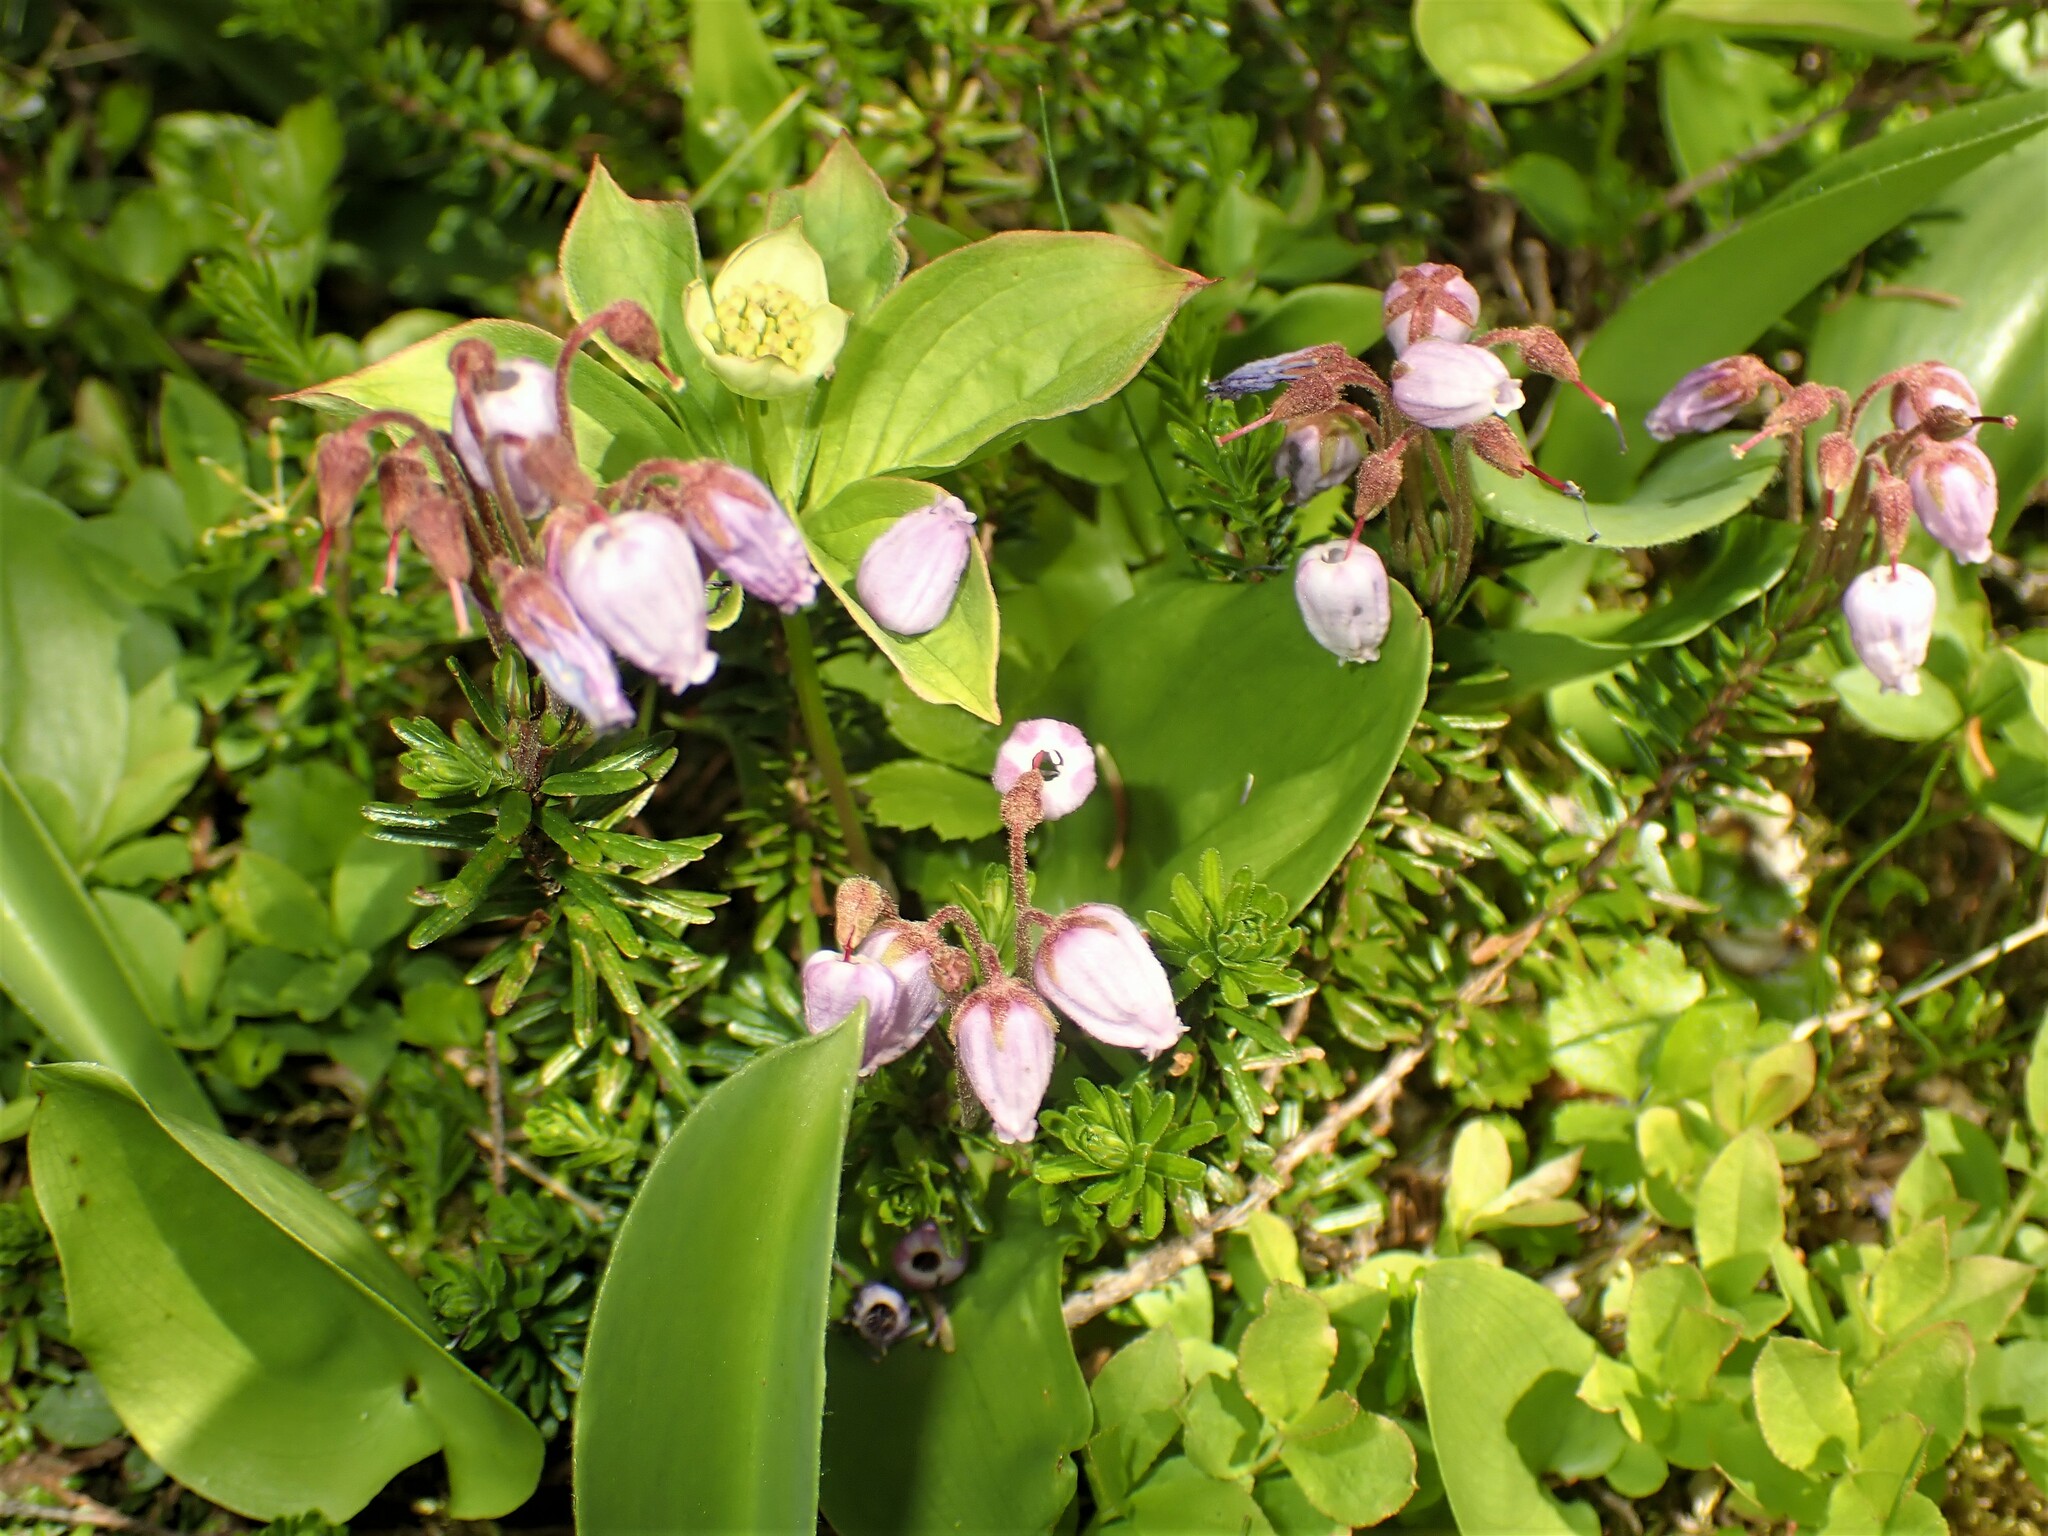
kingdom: Plantae
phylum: Tracheophyta
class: Magnoliopsida
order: Ericales
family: Ericaceae
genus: Phyllodoce
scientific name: Phyllodoce caerulea
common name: Blue heath
